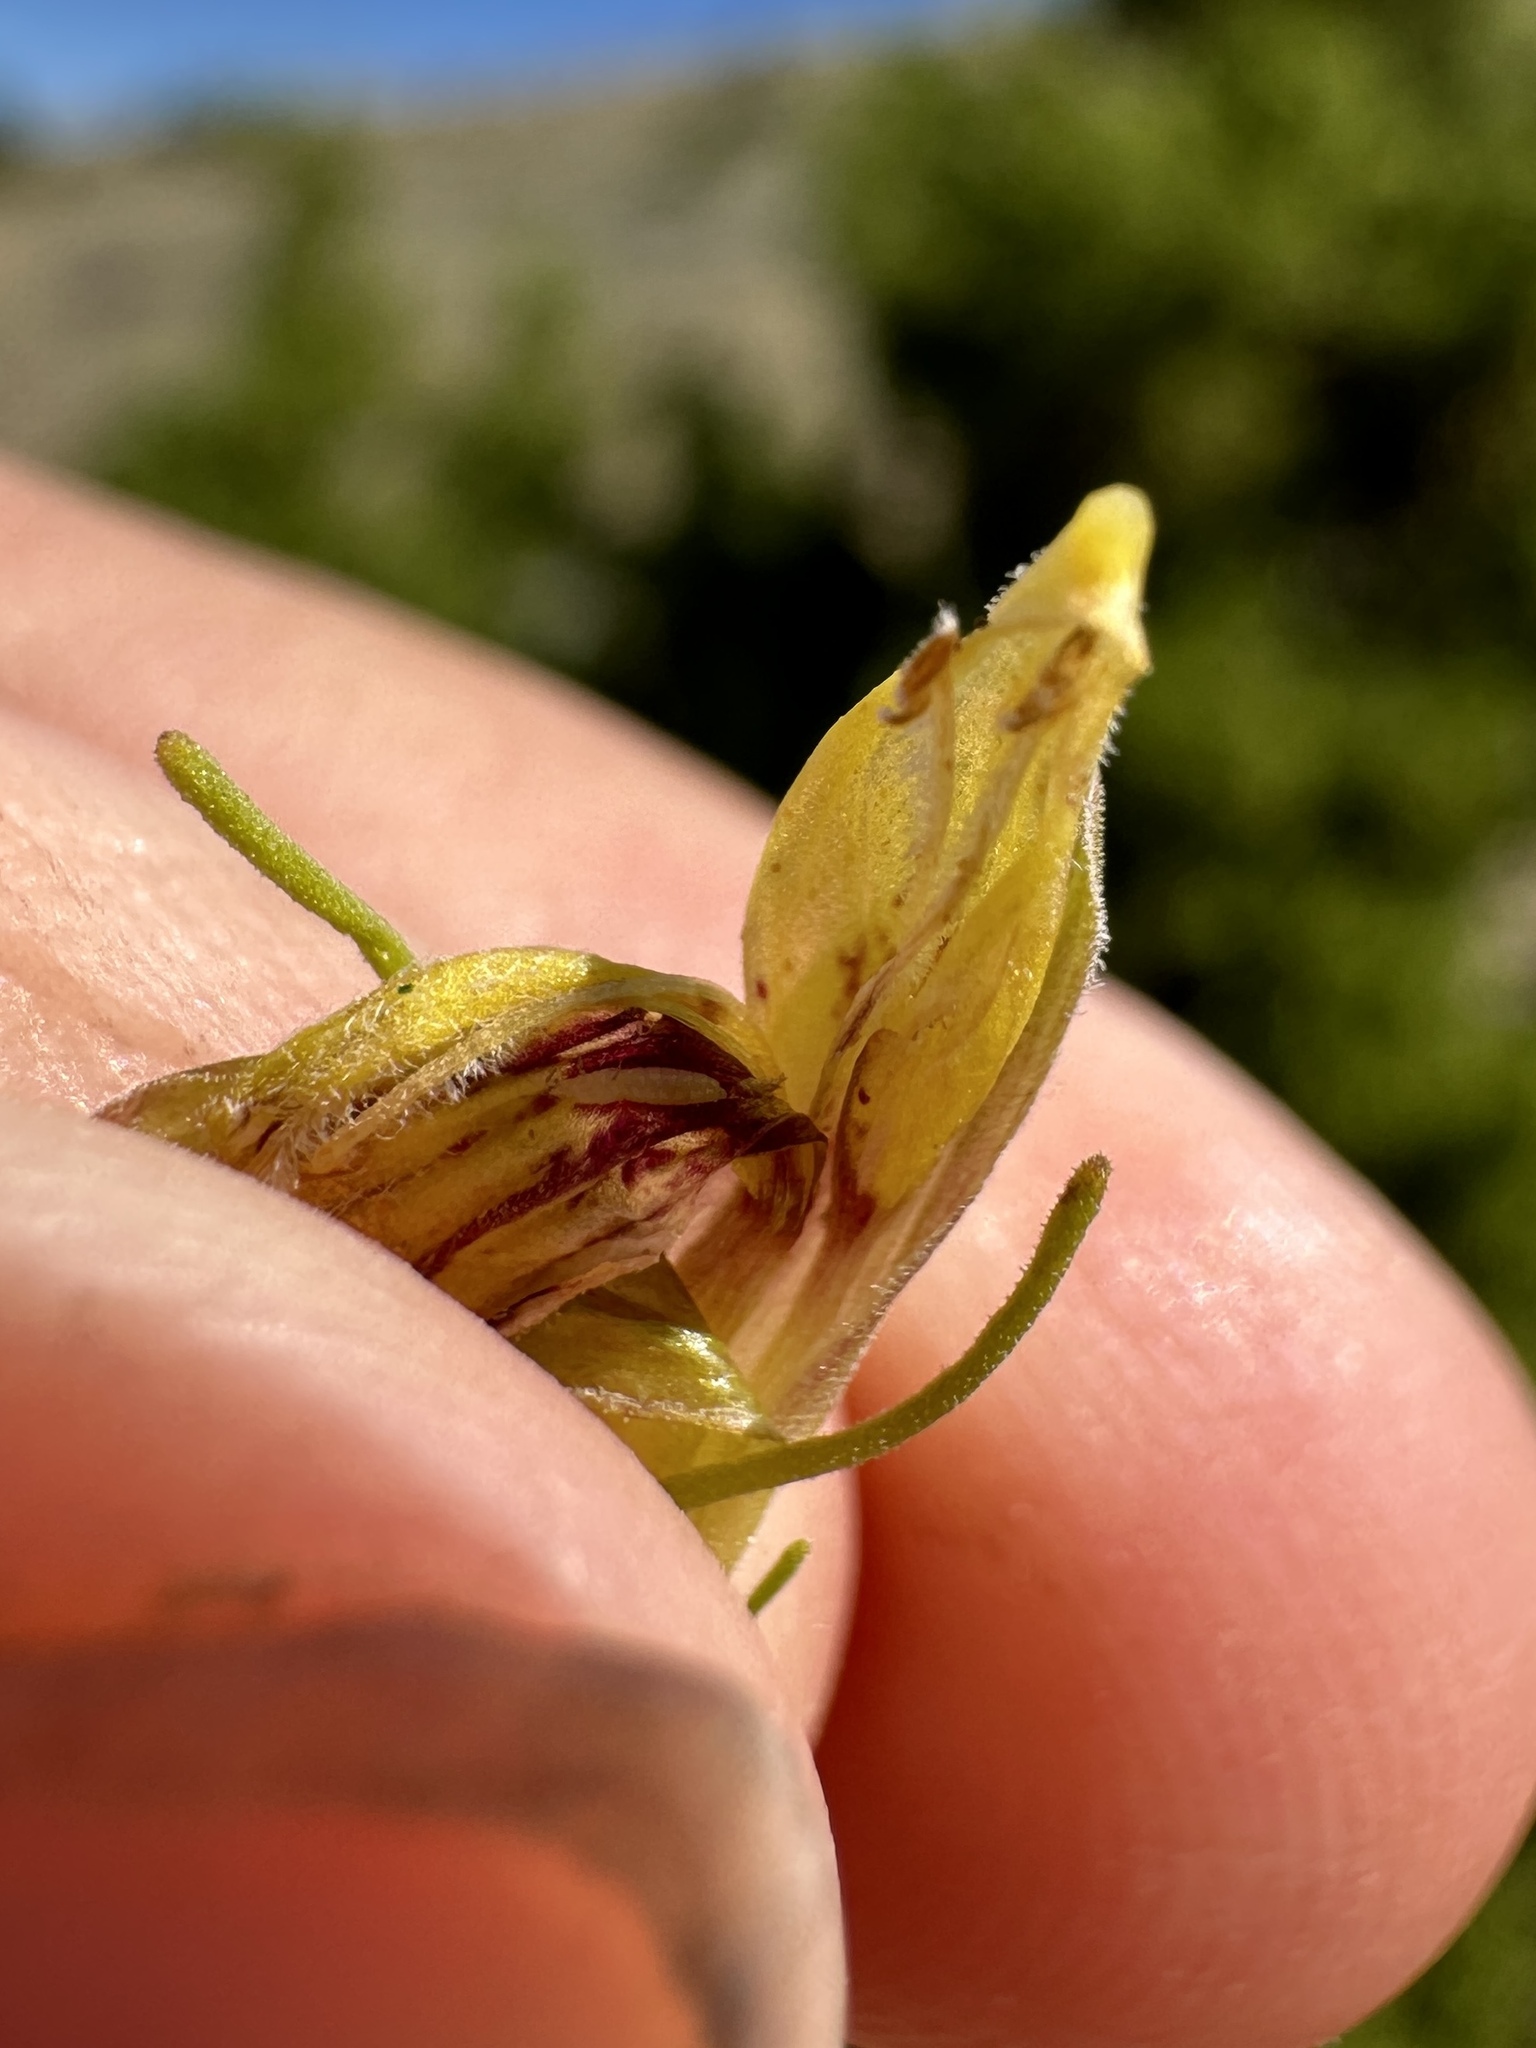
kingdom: Plantae
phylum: Tracheophyta
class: Magnoliopsida
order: Lamiales
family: Orobanchaceae
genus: Cordylanthus
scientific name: Cordylanthus ramosus
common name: Much-branched bird's-beak
